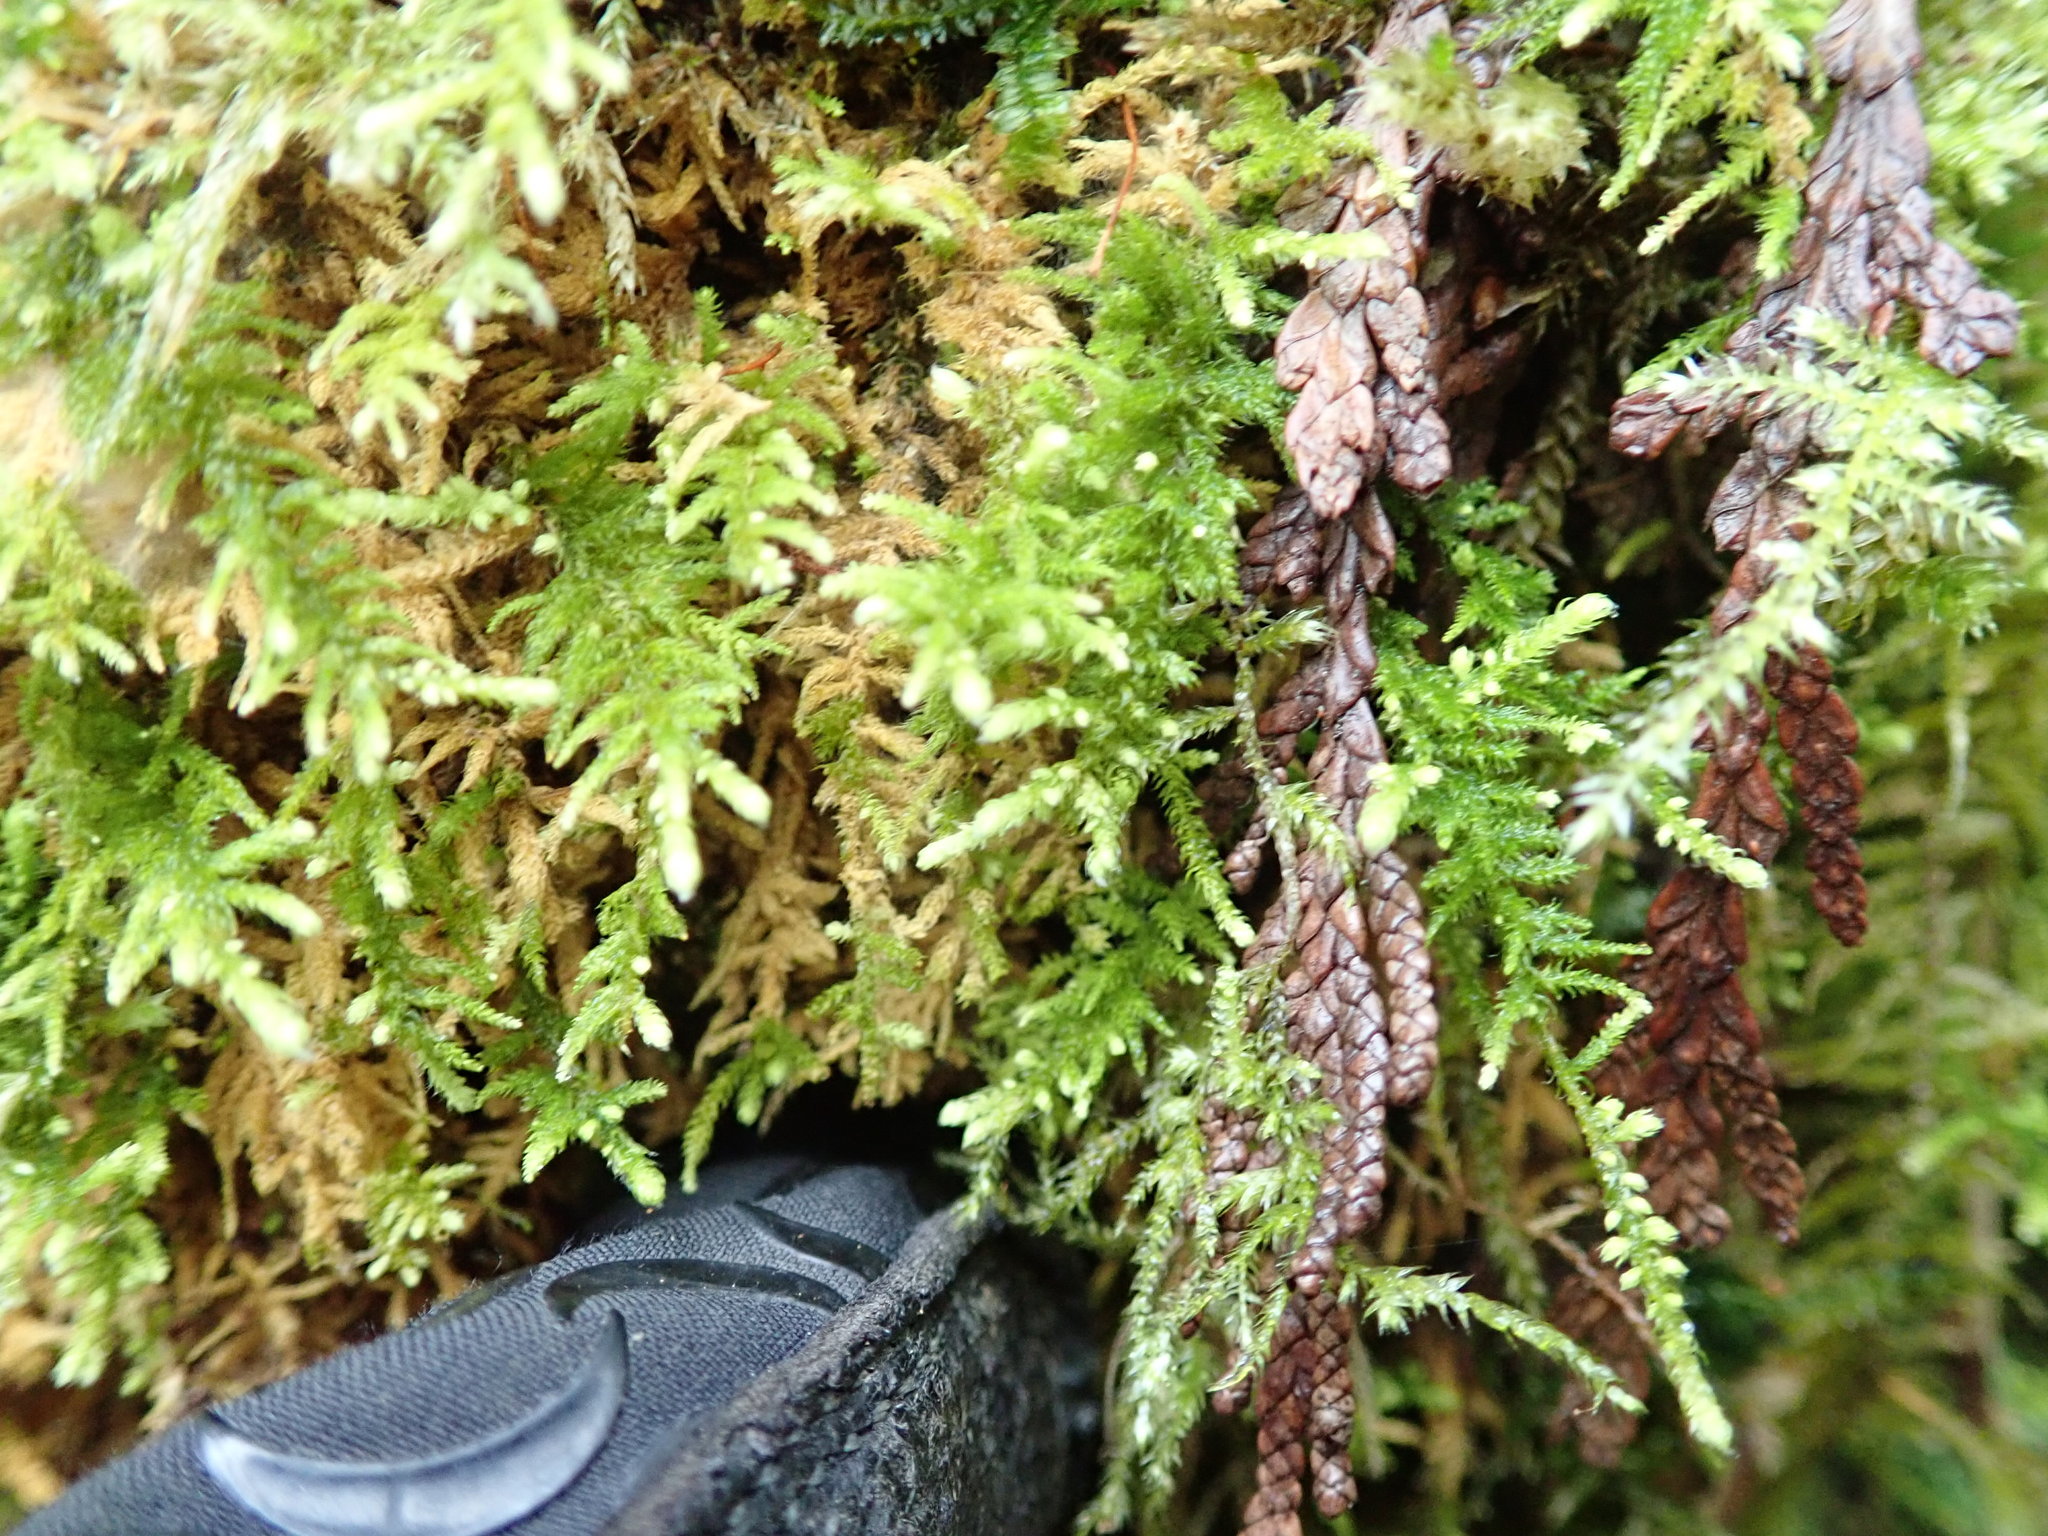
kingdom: Plantae
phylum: Bryophyta
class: Bryopsida
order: Hypnales
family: Brachytheciaceae
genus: Claopodium
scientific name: Claopodium crispifolium
